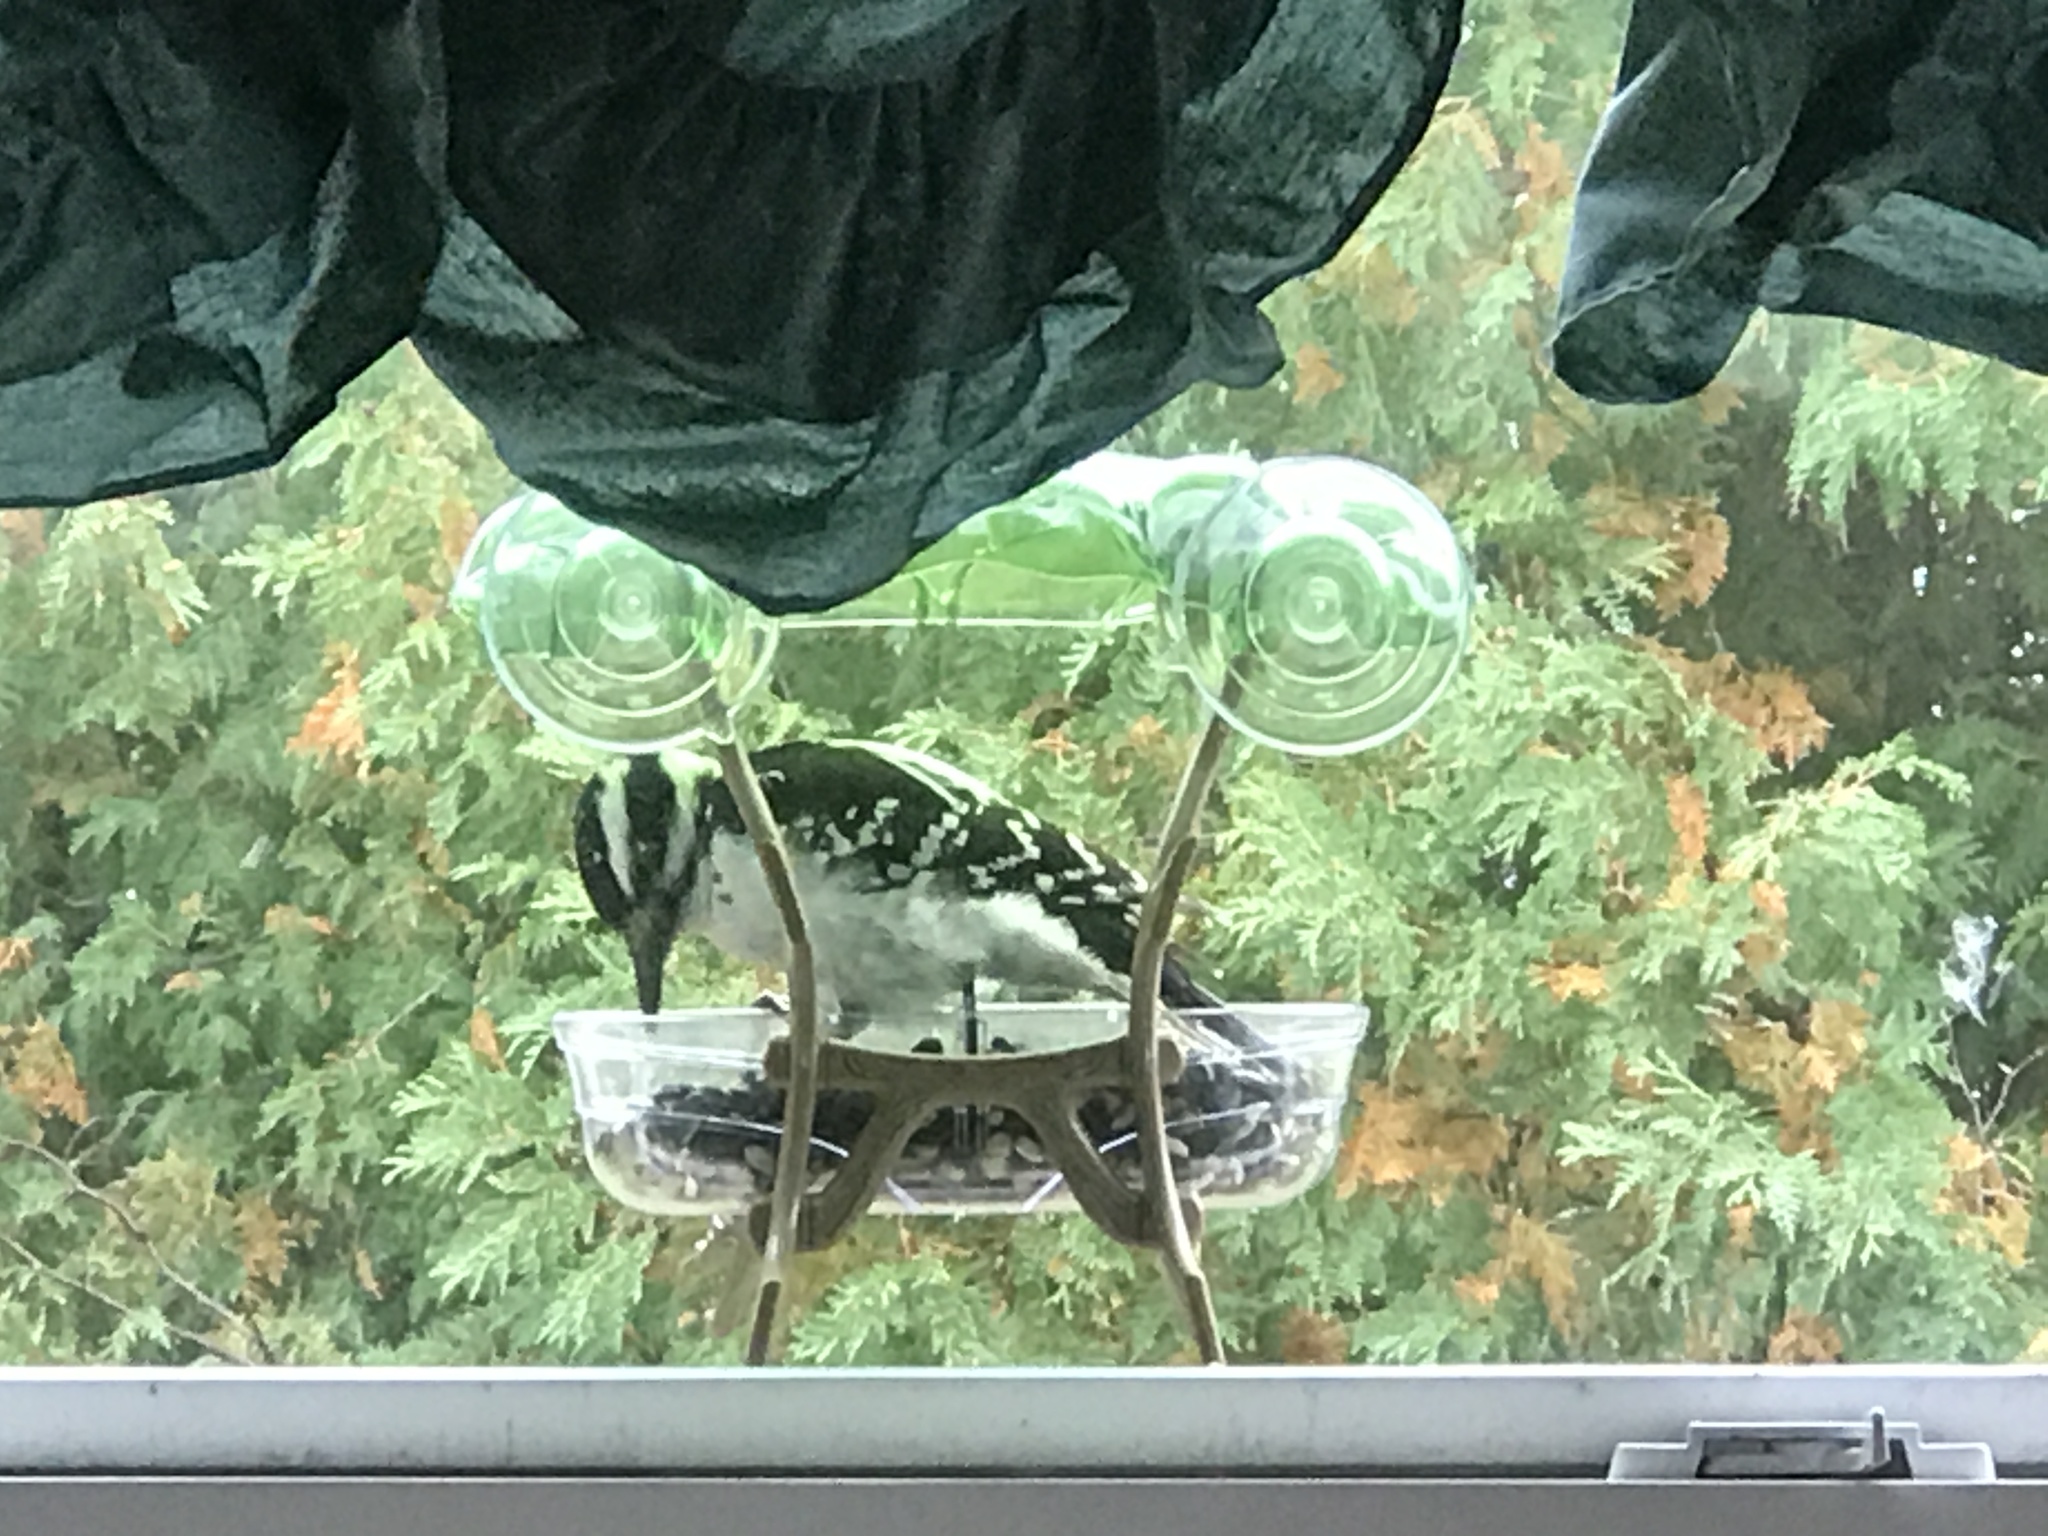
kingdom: Animalia
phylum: Chordata
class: Aves
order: Piciformes
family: Picidae
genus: Leuconotopicus
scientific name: Leuconotopicus villosus
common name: Hairy woodpecker
